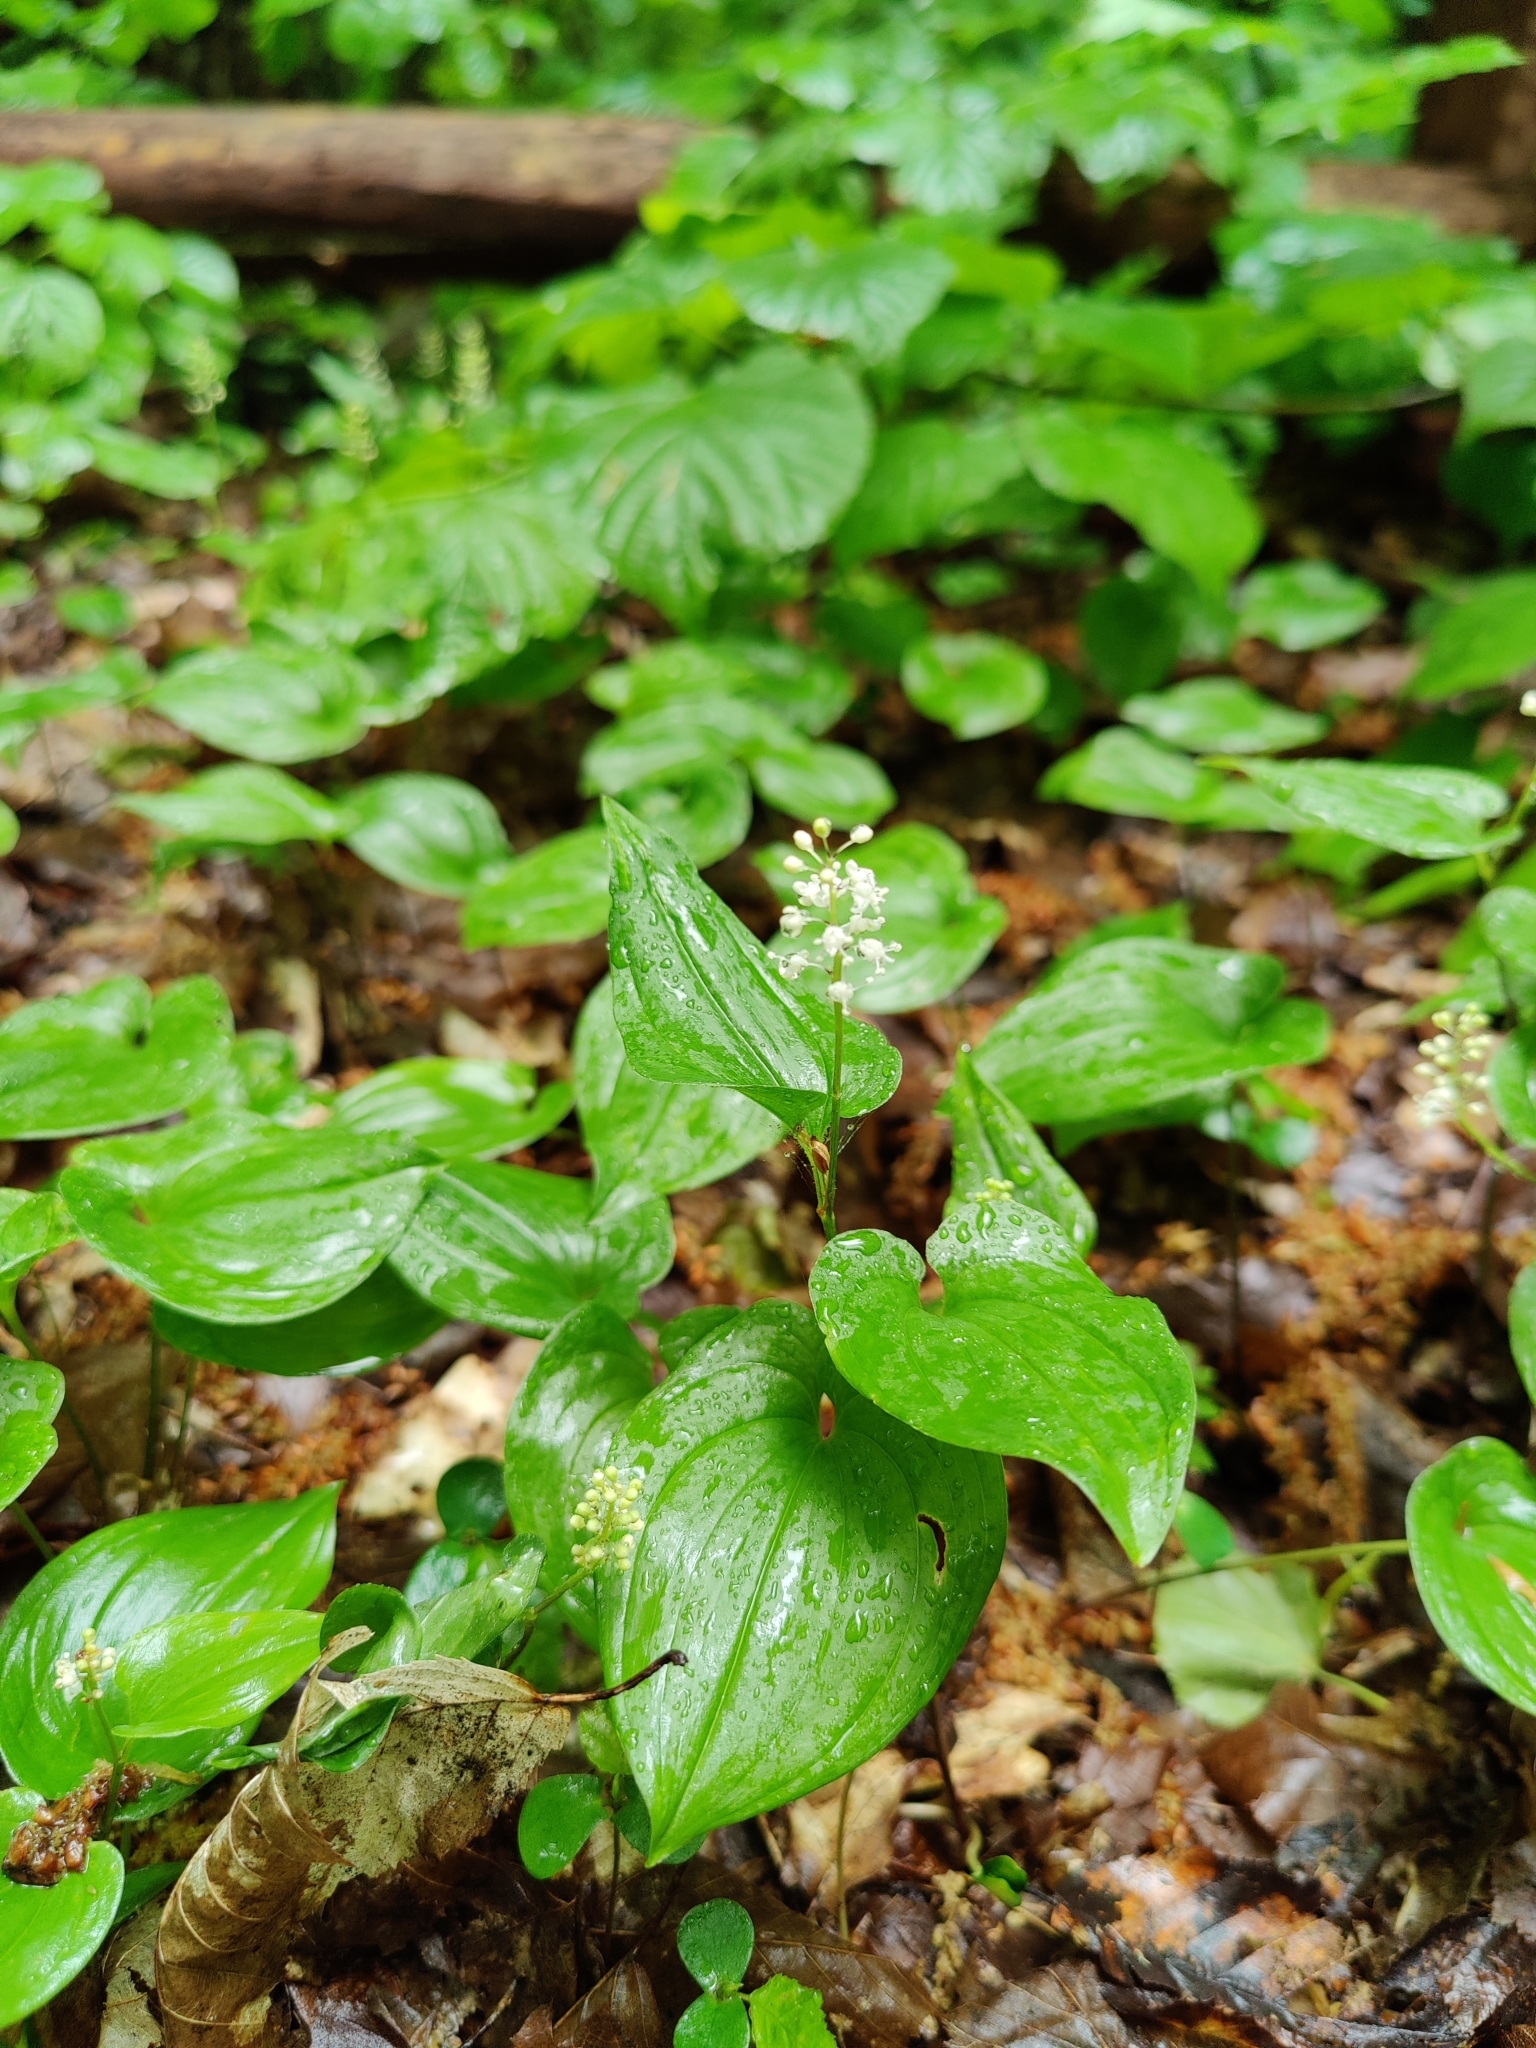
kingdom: Plantae
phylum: Tracheophyta
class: Liliopsida
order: Asparagales
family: Asparagaceae
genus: Maianthemum
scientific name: Maianthemum bifolium
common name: May lily
